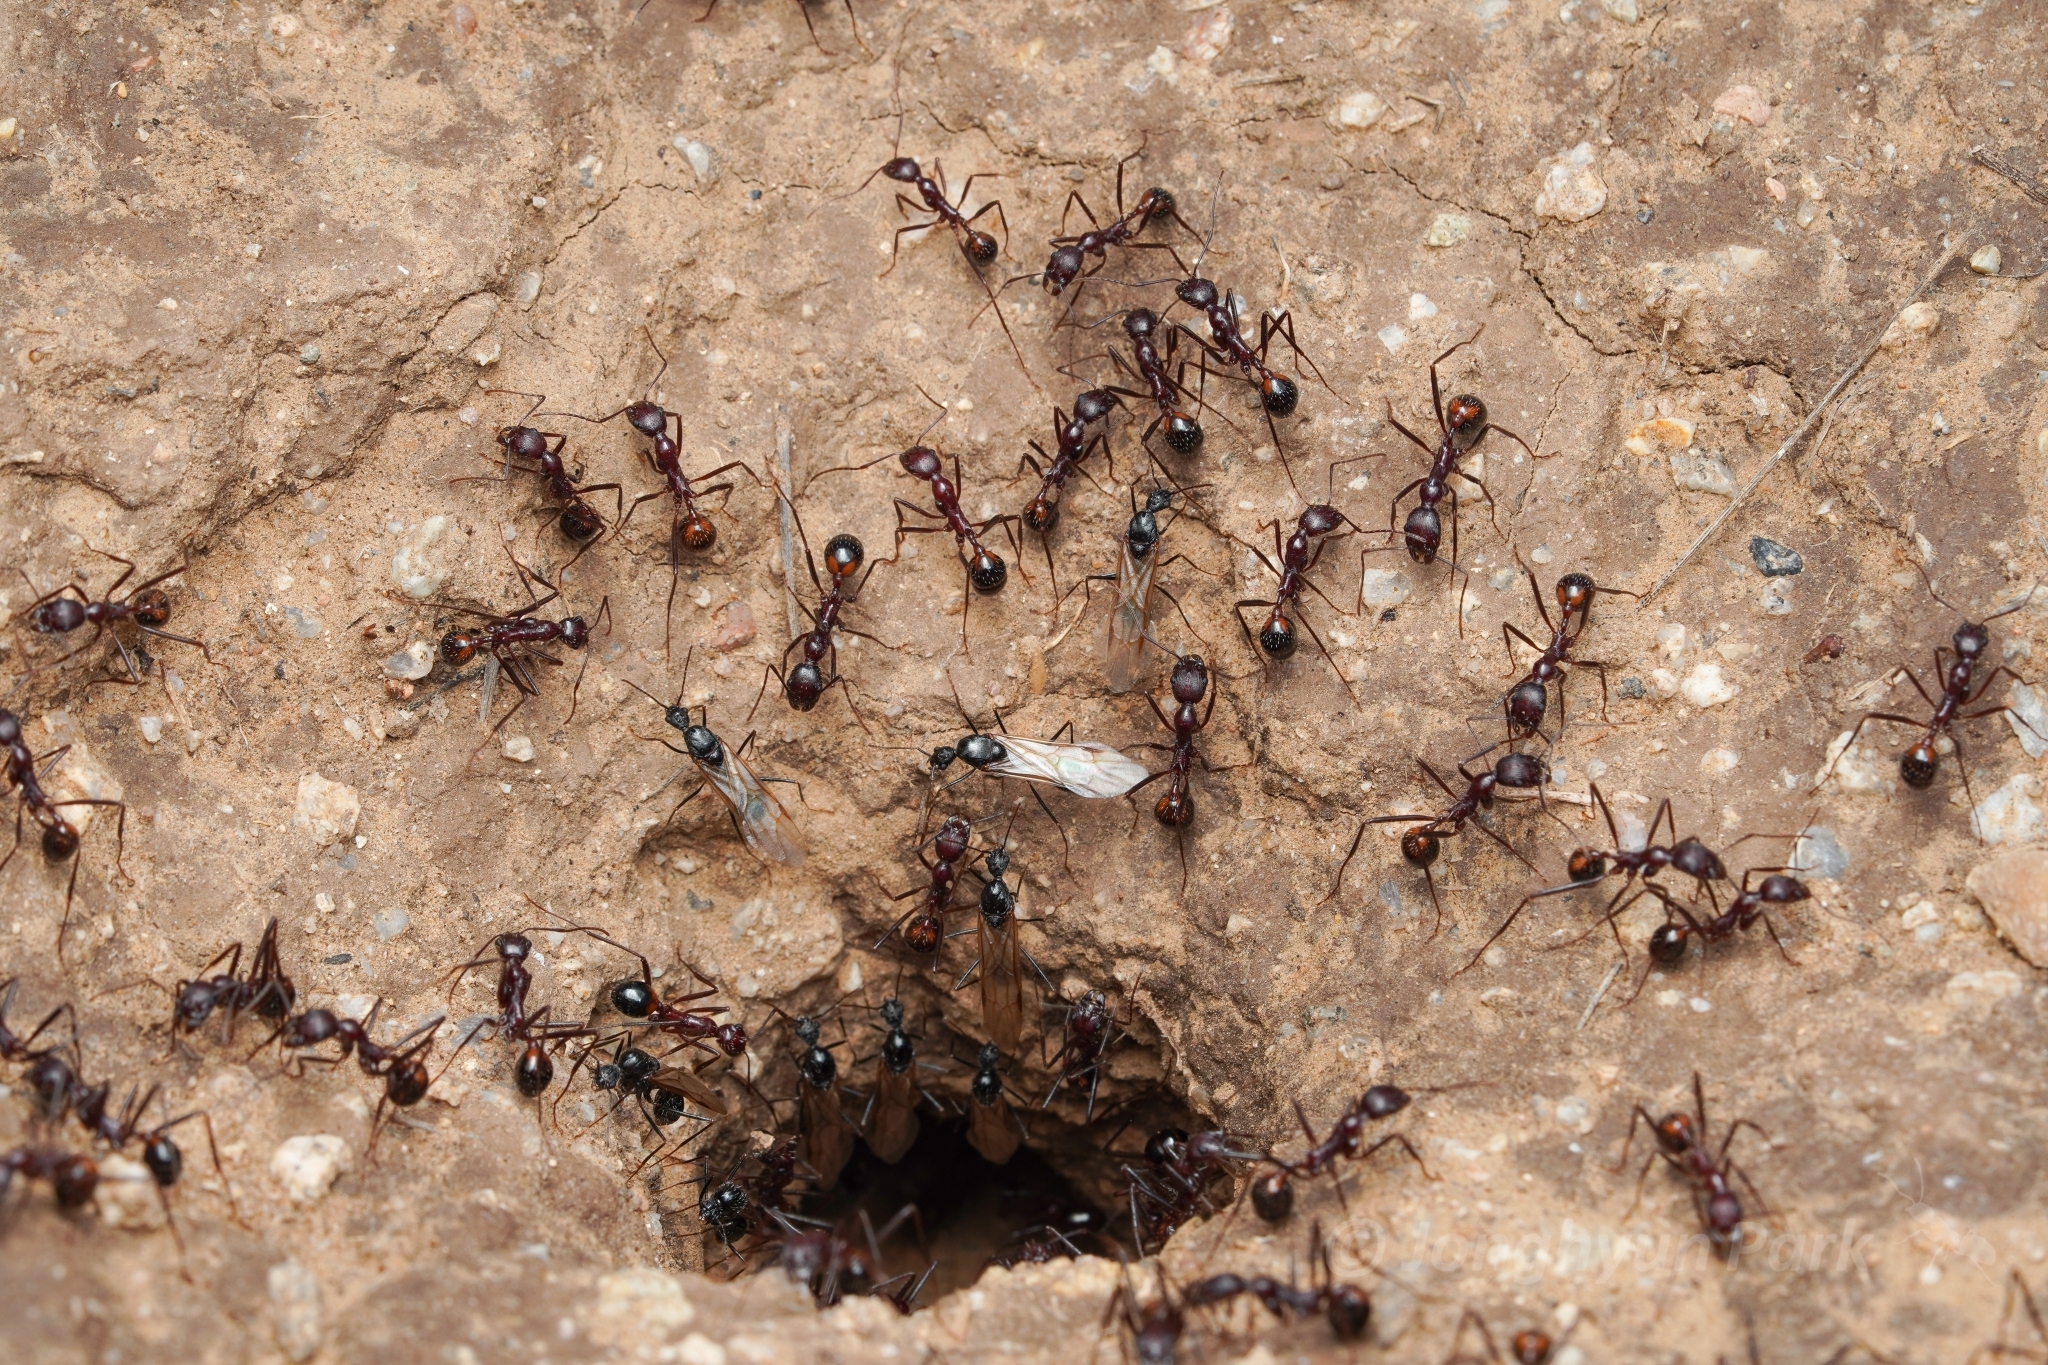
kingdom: Animalia
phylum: Arthropoda
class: Insecta
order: Hymenoptera
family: Formicidae
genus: Novomessor
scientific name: Novomessor cockerelli
